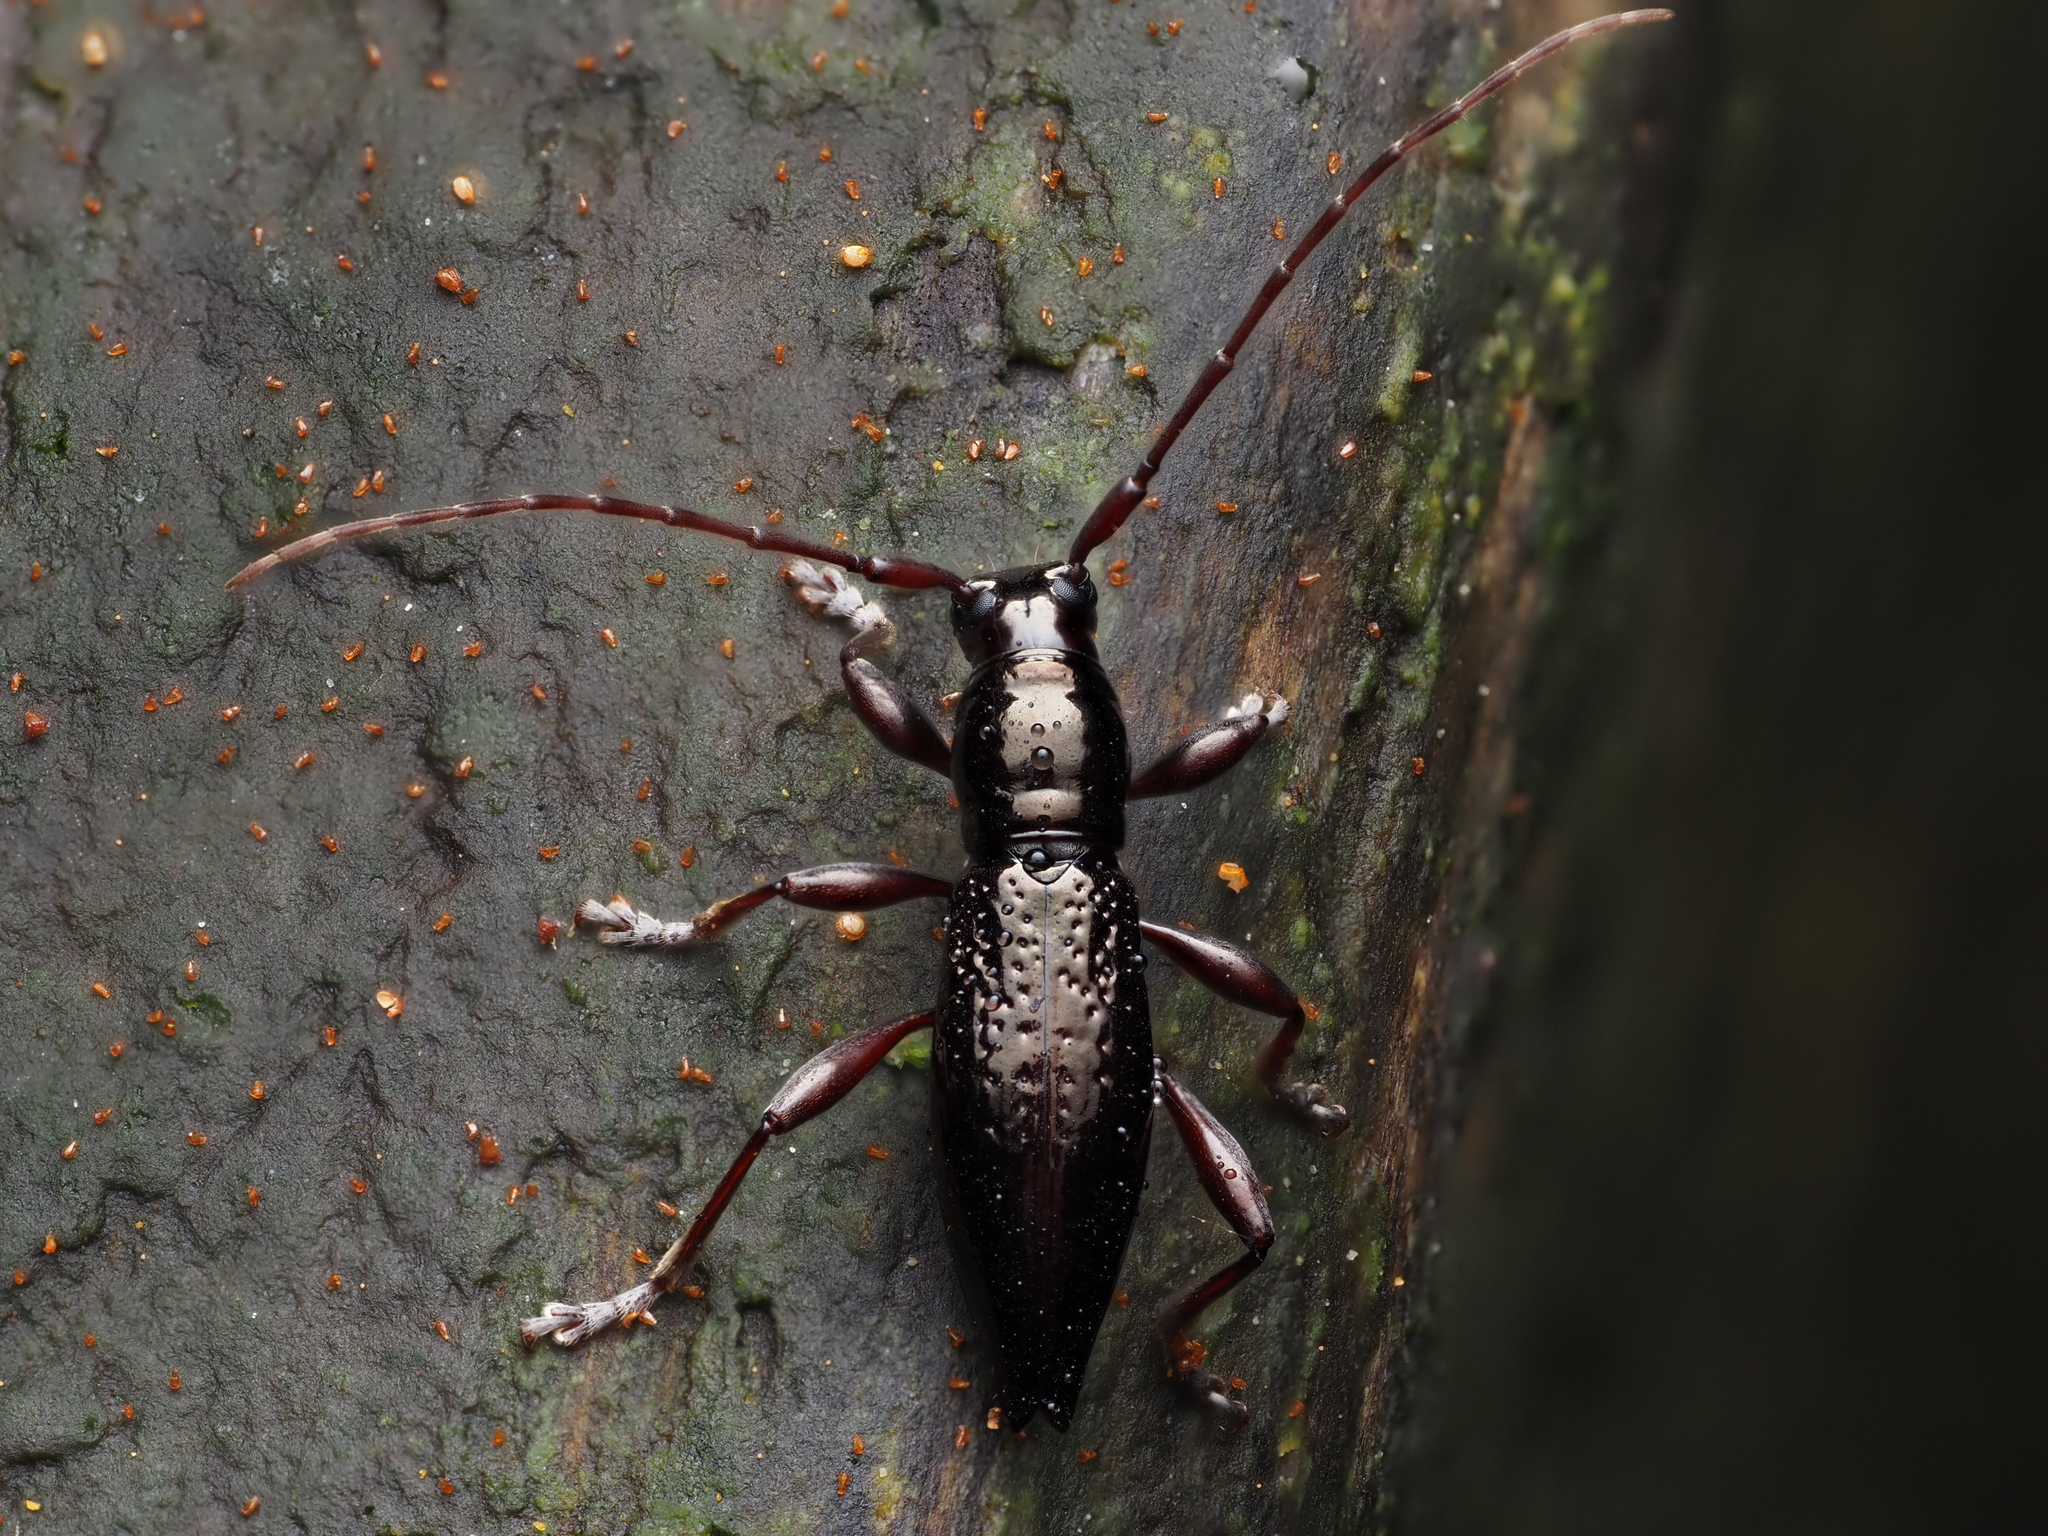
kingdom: Animalia
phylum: Arthropoda
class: Insecta
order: Coleoptera
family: Cerambycidae
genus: Xylotoles
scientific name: Xylotoles nudus
